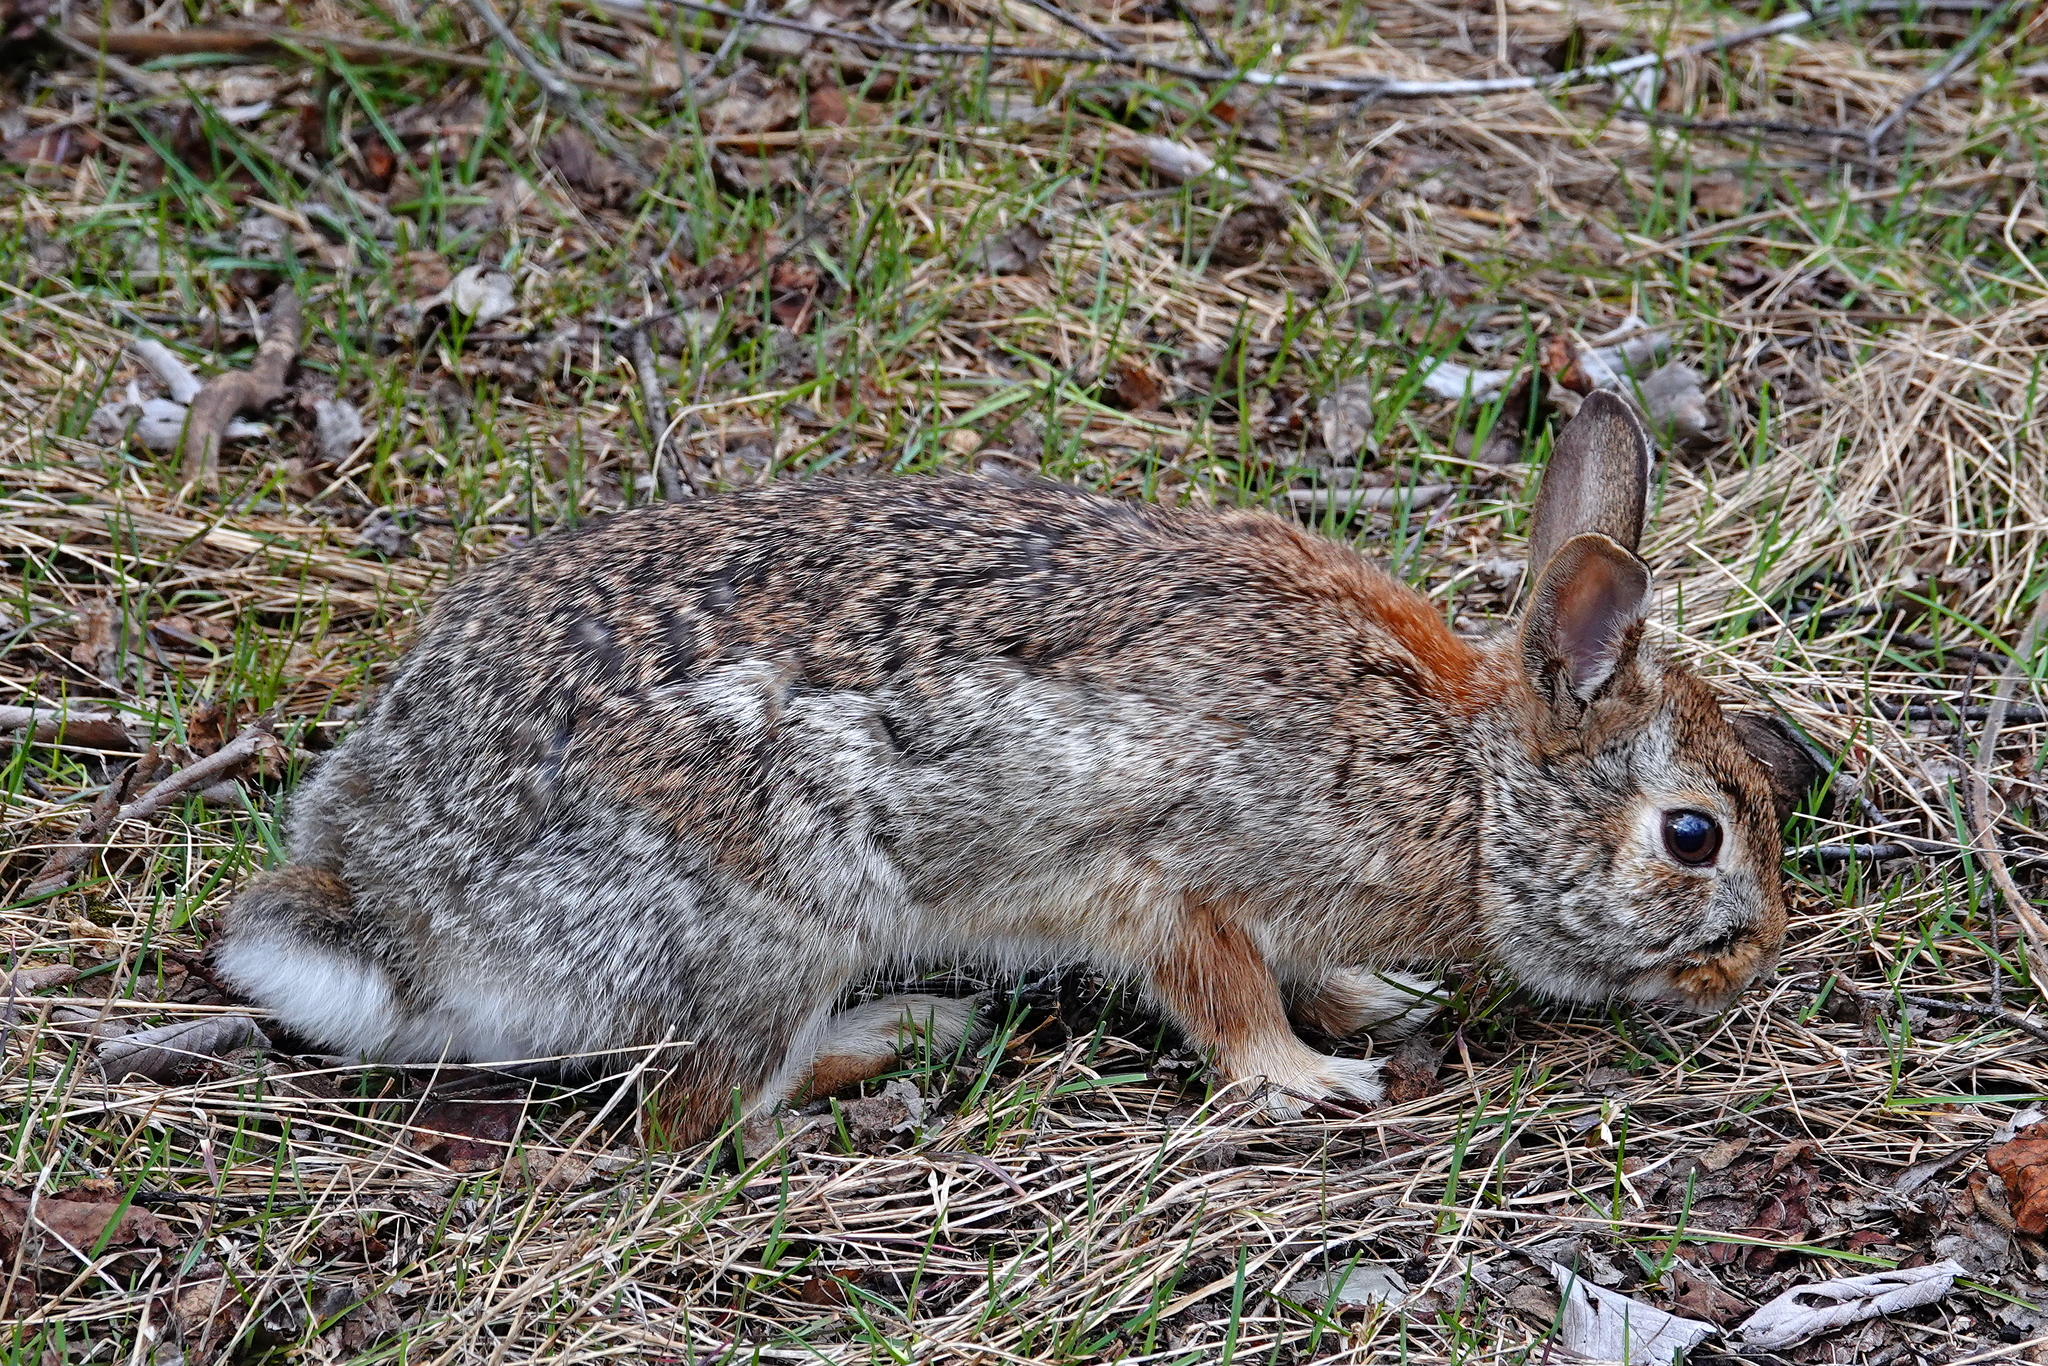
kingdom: Animalia
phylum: Chordata
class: Mammalia
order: Lagomorpha
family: Leporidae
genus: Sylvilagus
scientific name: Sylvilagus floridanus
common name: Eastern cottontail
